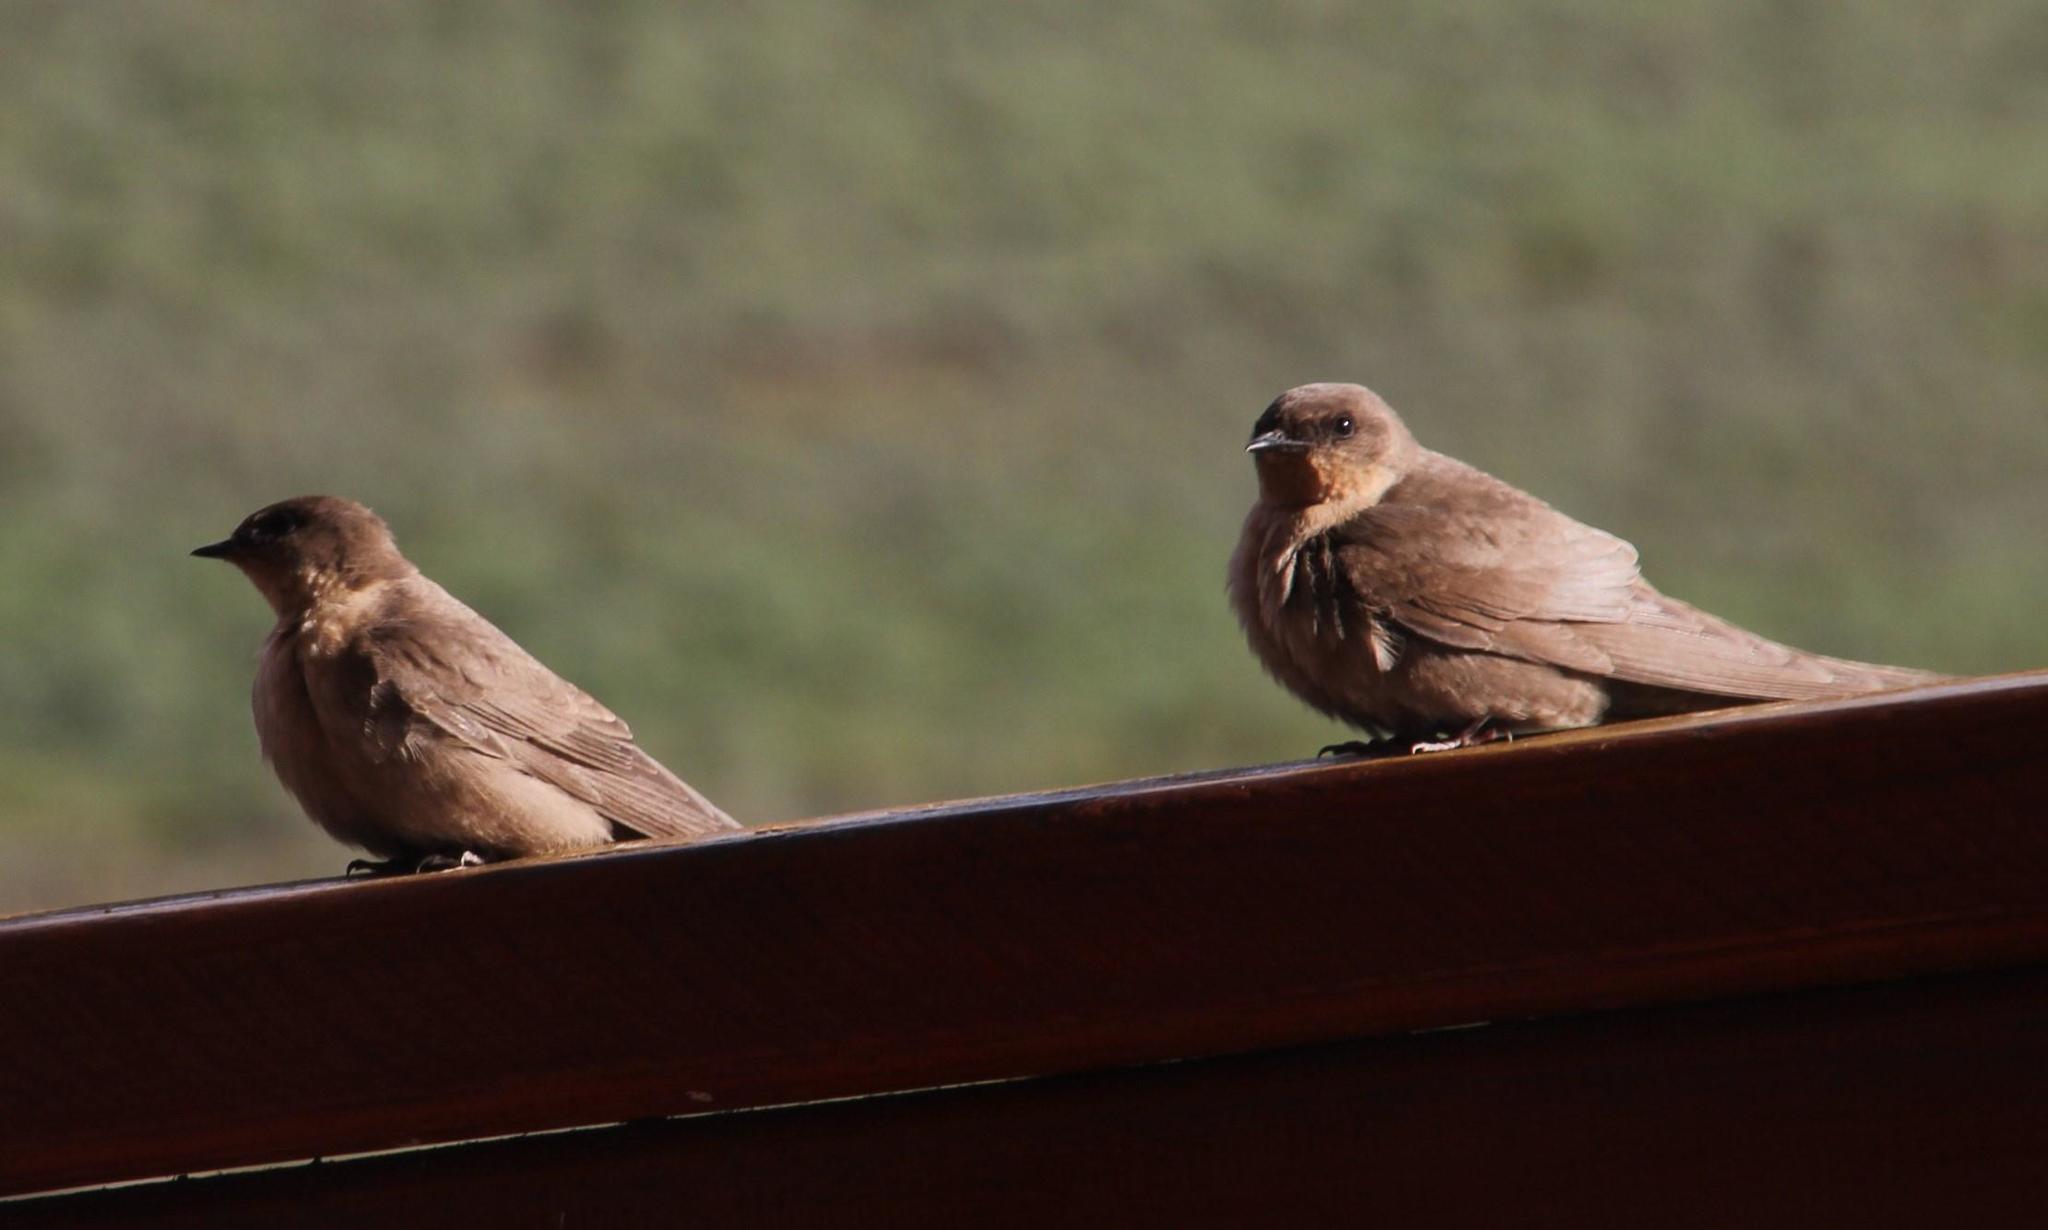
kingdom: Animalia
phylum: Chordata
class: Aves
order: Passeriformes
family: Hirundinidae
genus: Ptyonoprogne
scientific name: Ptyonoprogne fuligula
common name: Rock martin
